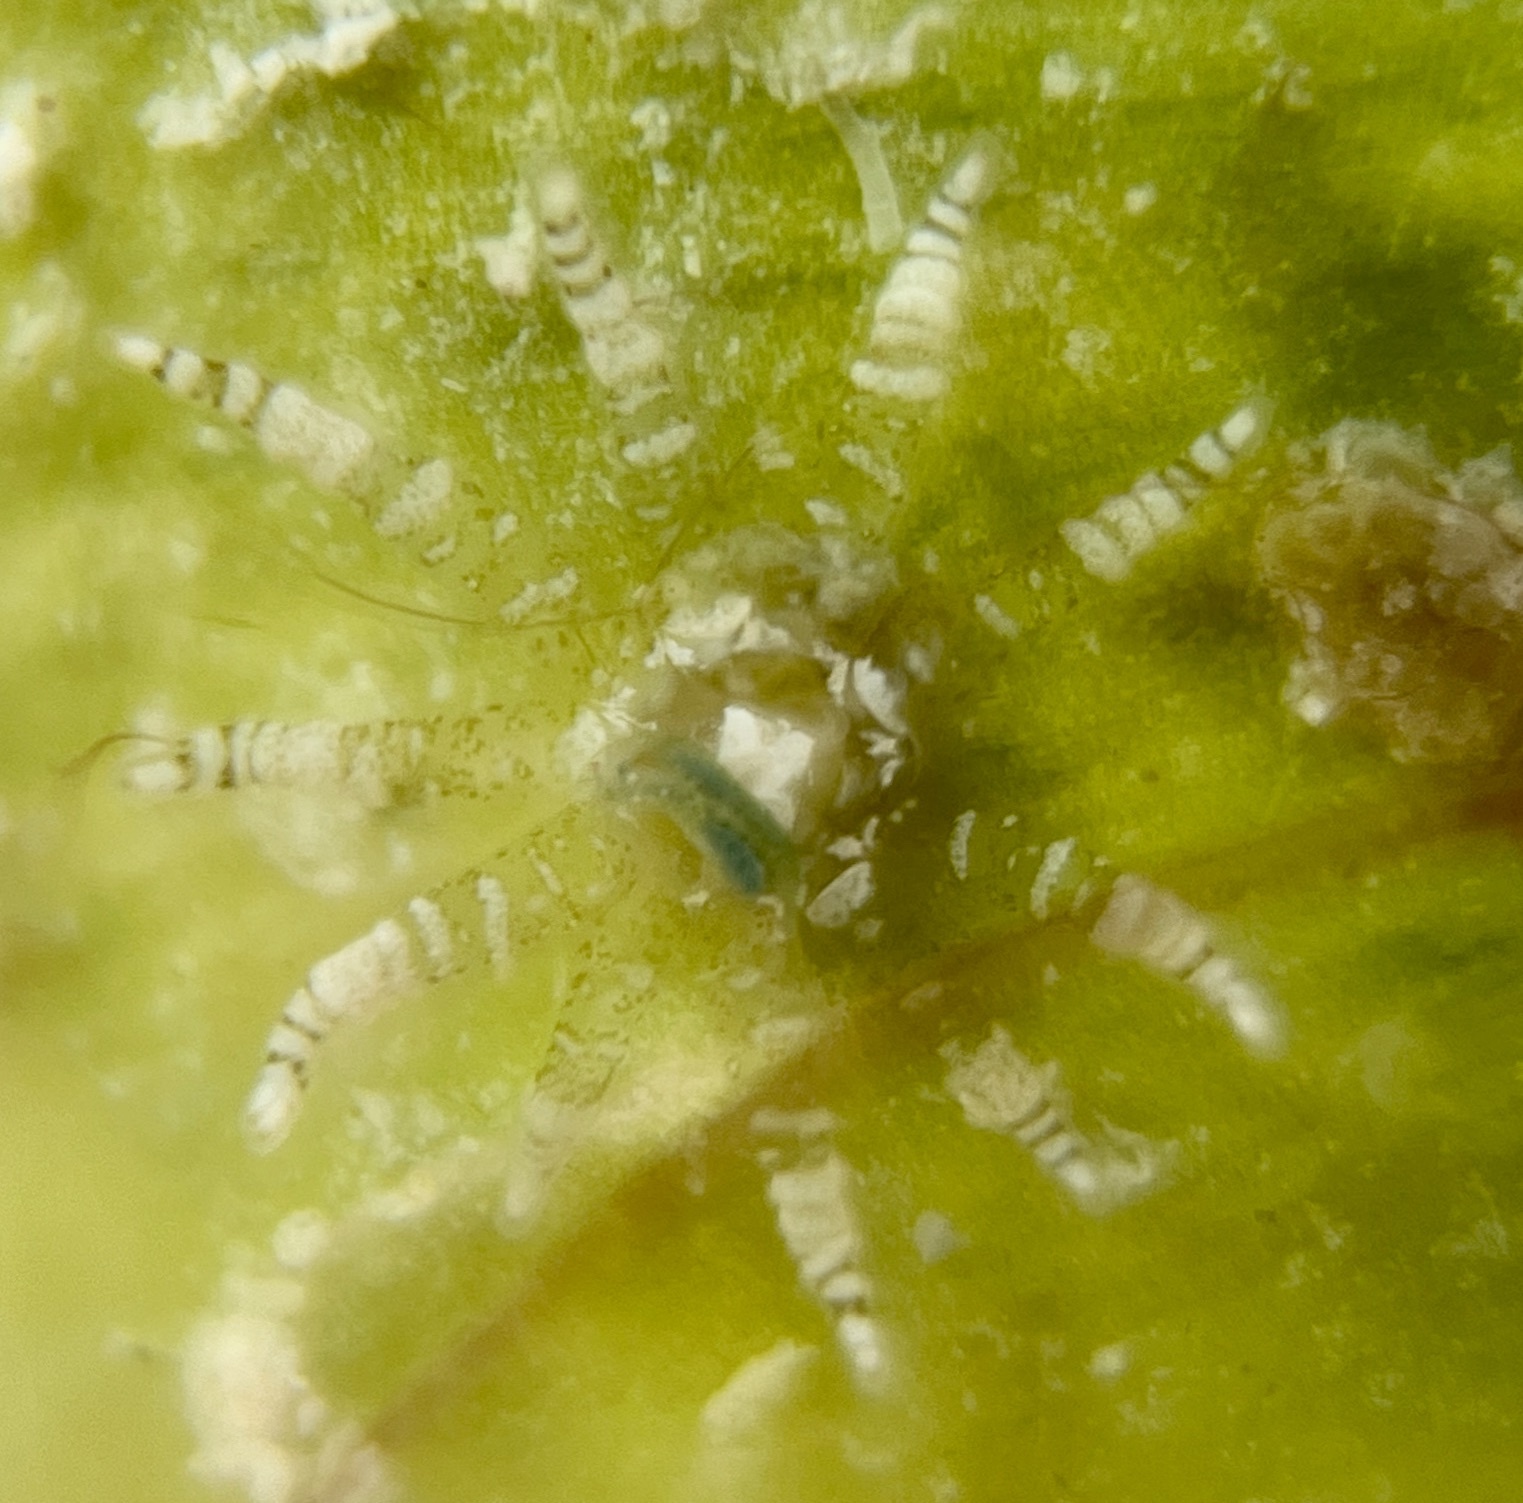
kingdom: Animalia
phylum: Cnidaria
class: Anthozoa
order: Actiniaria
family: Boloceroididae
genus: Bunodeopsis
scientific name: Bunodeopsis globulifera
